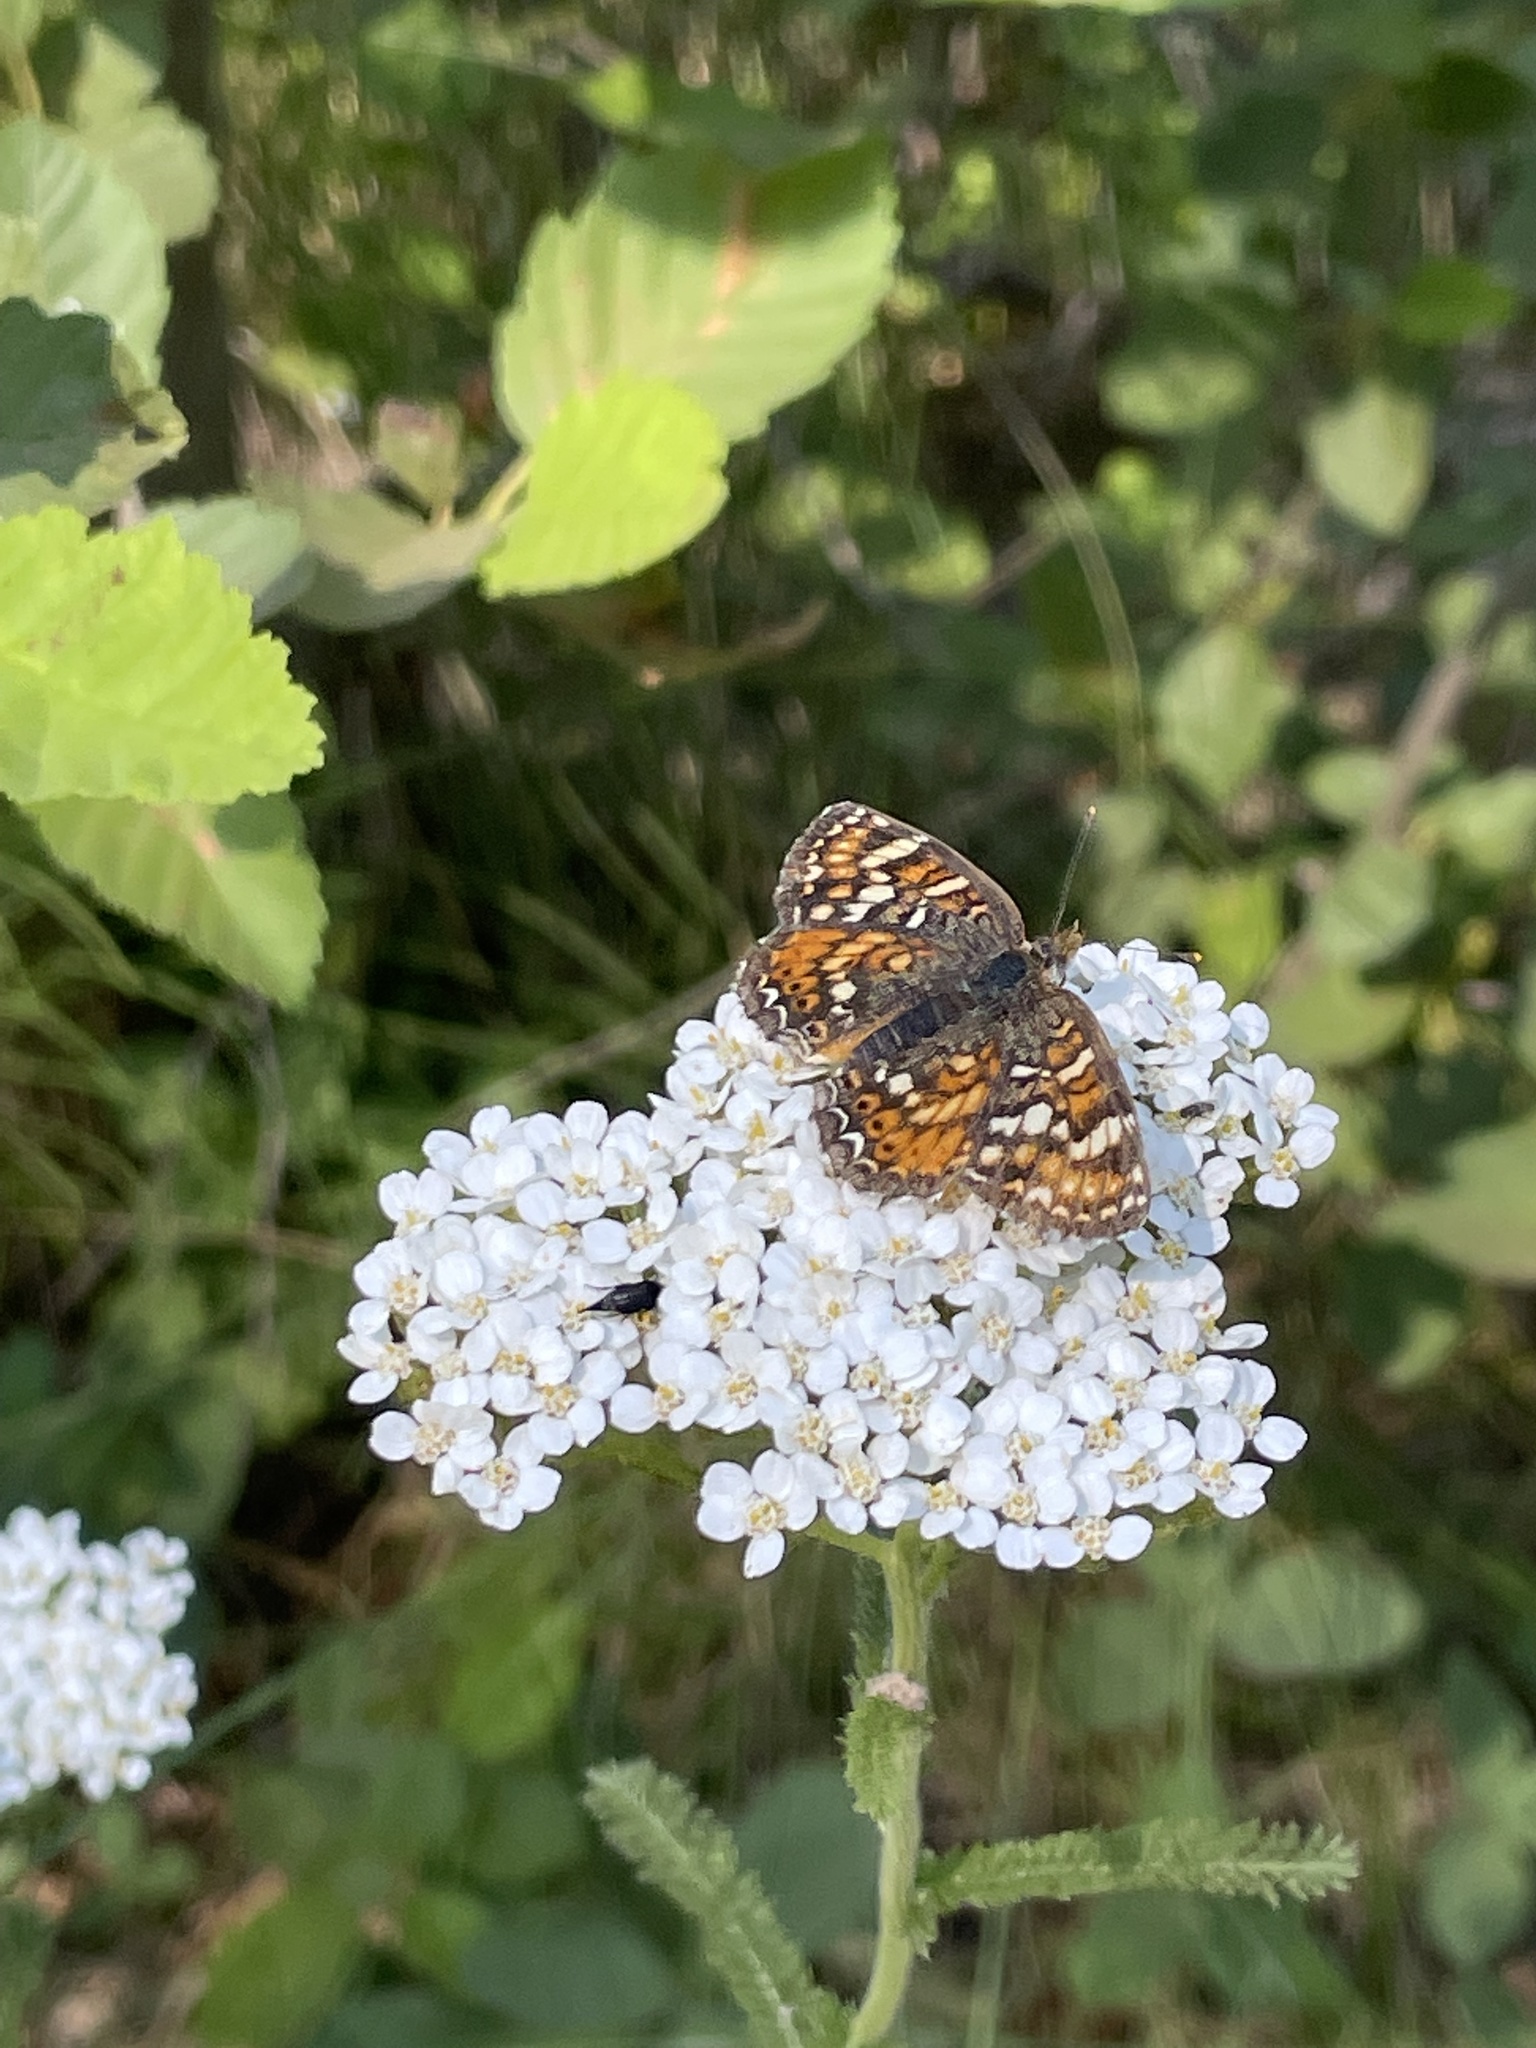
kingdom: Animalia
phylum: Arthropoda
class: Insecta
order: Lepidoptera
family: Nymphalidae
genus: Phyciodes
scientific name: Phyciodes tharos
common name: Pearl crescent
